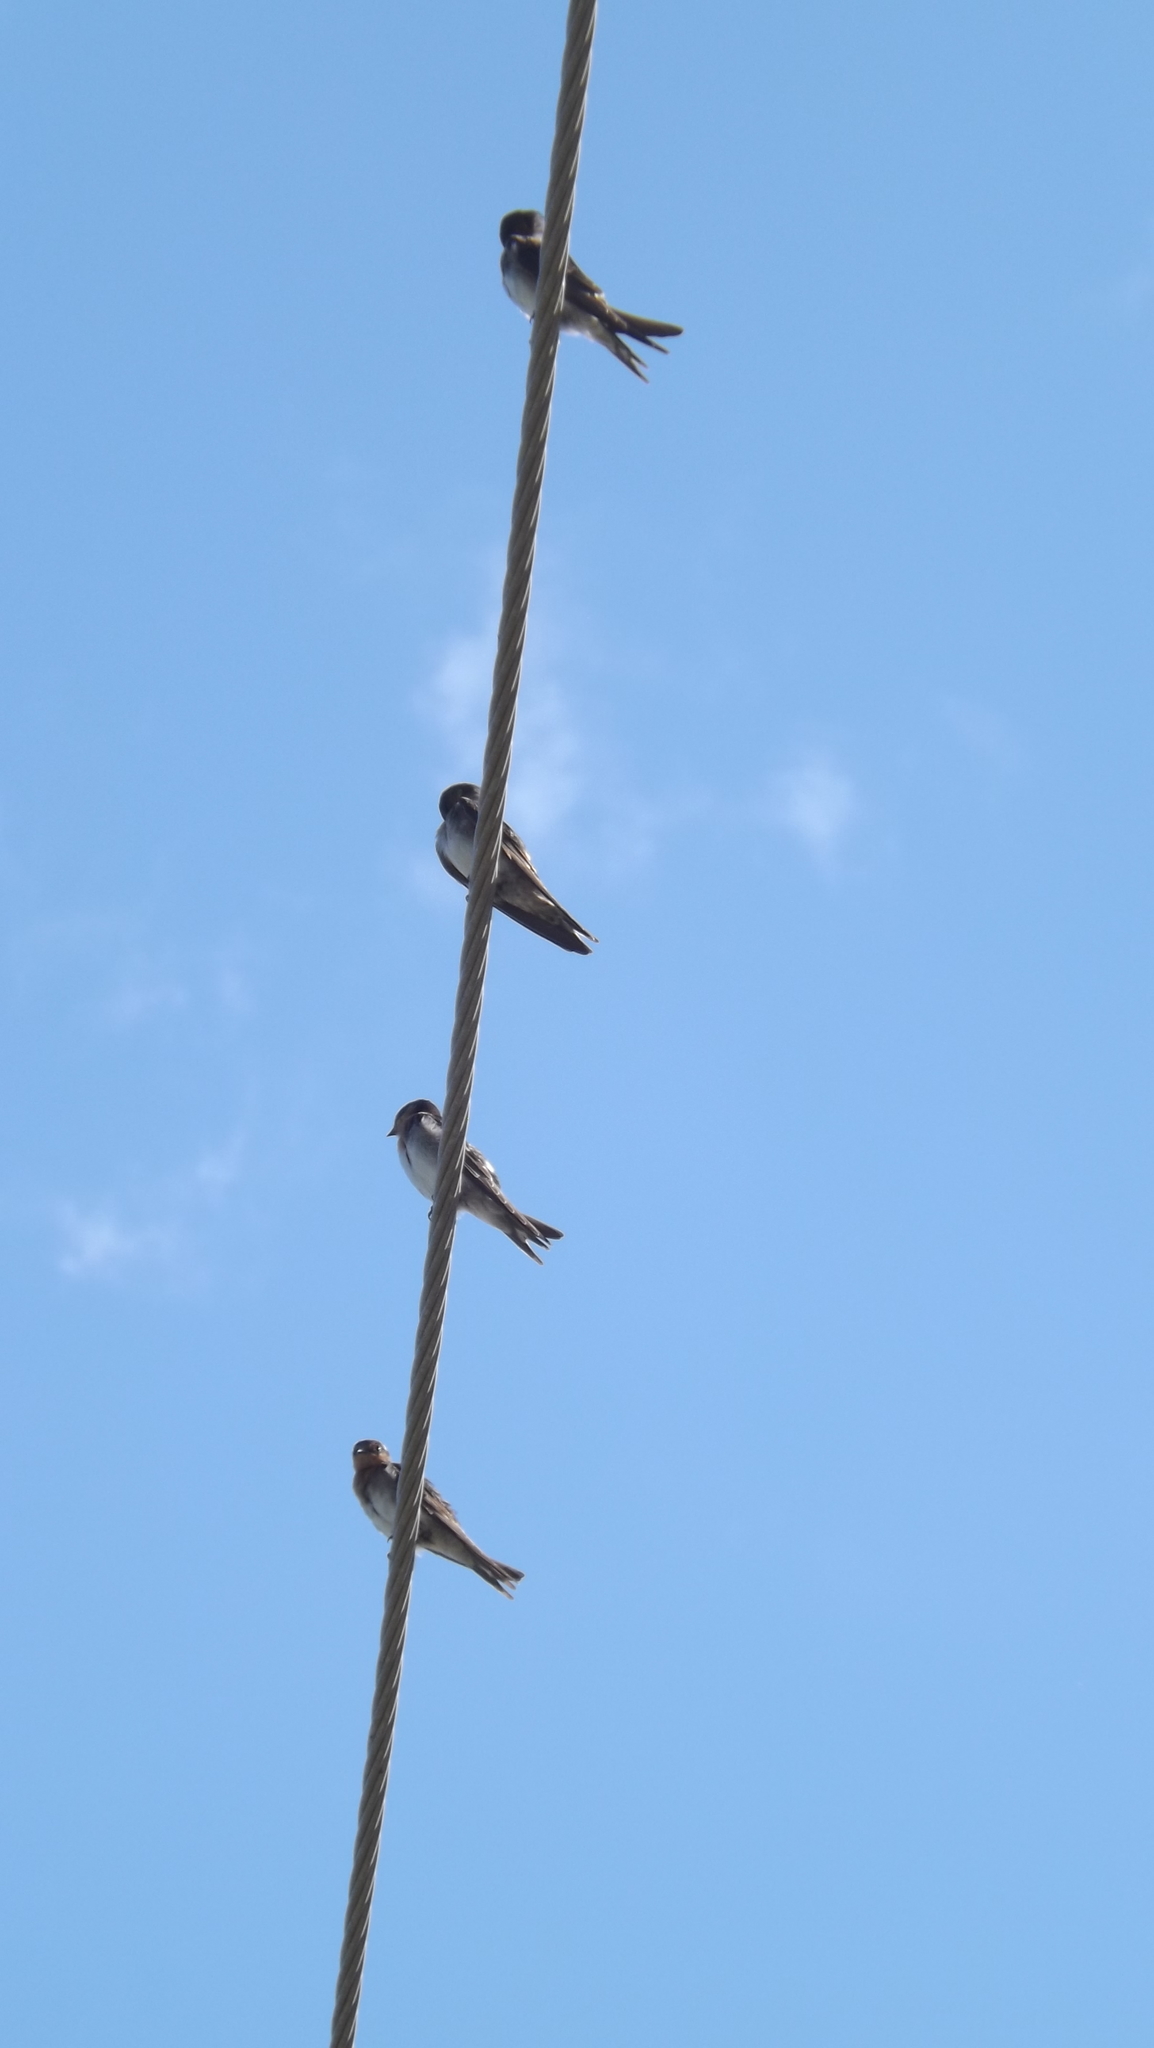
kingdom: Animalia
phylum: Chordata
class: Aves
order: Passeriformes
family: Hirundinidae
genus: Hirundo
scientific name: Hirundo neoxena
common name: Welcome swallow
